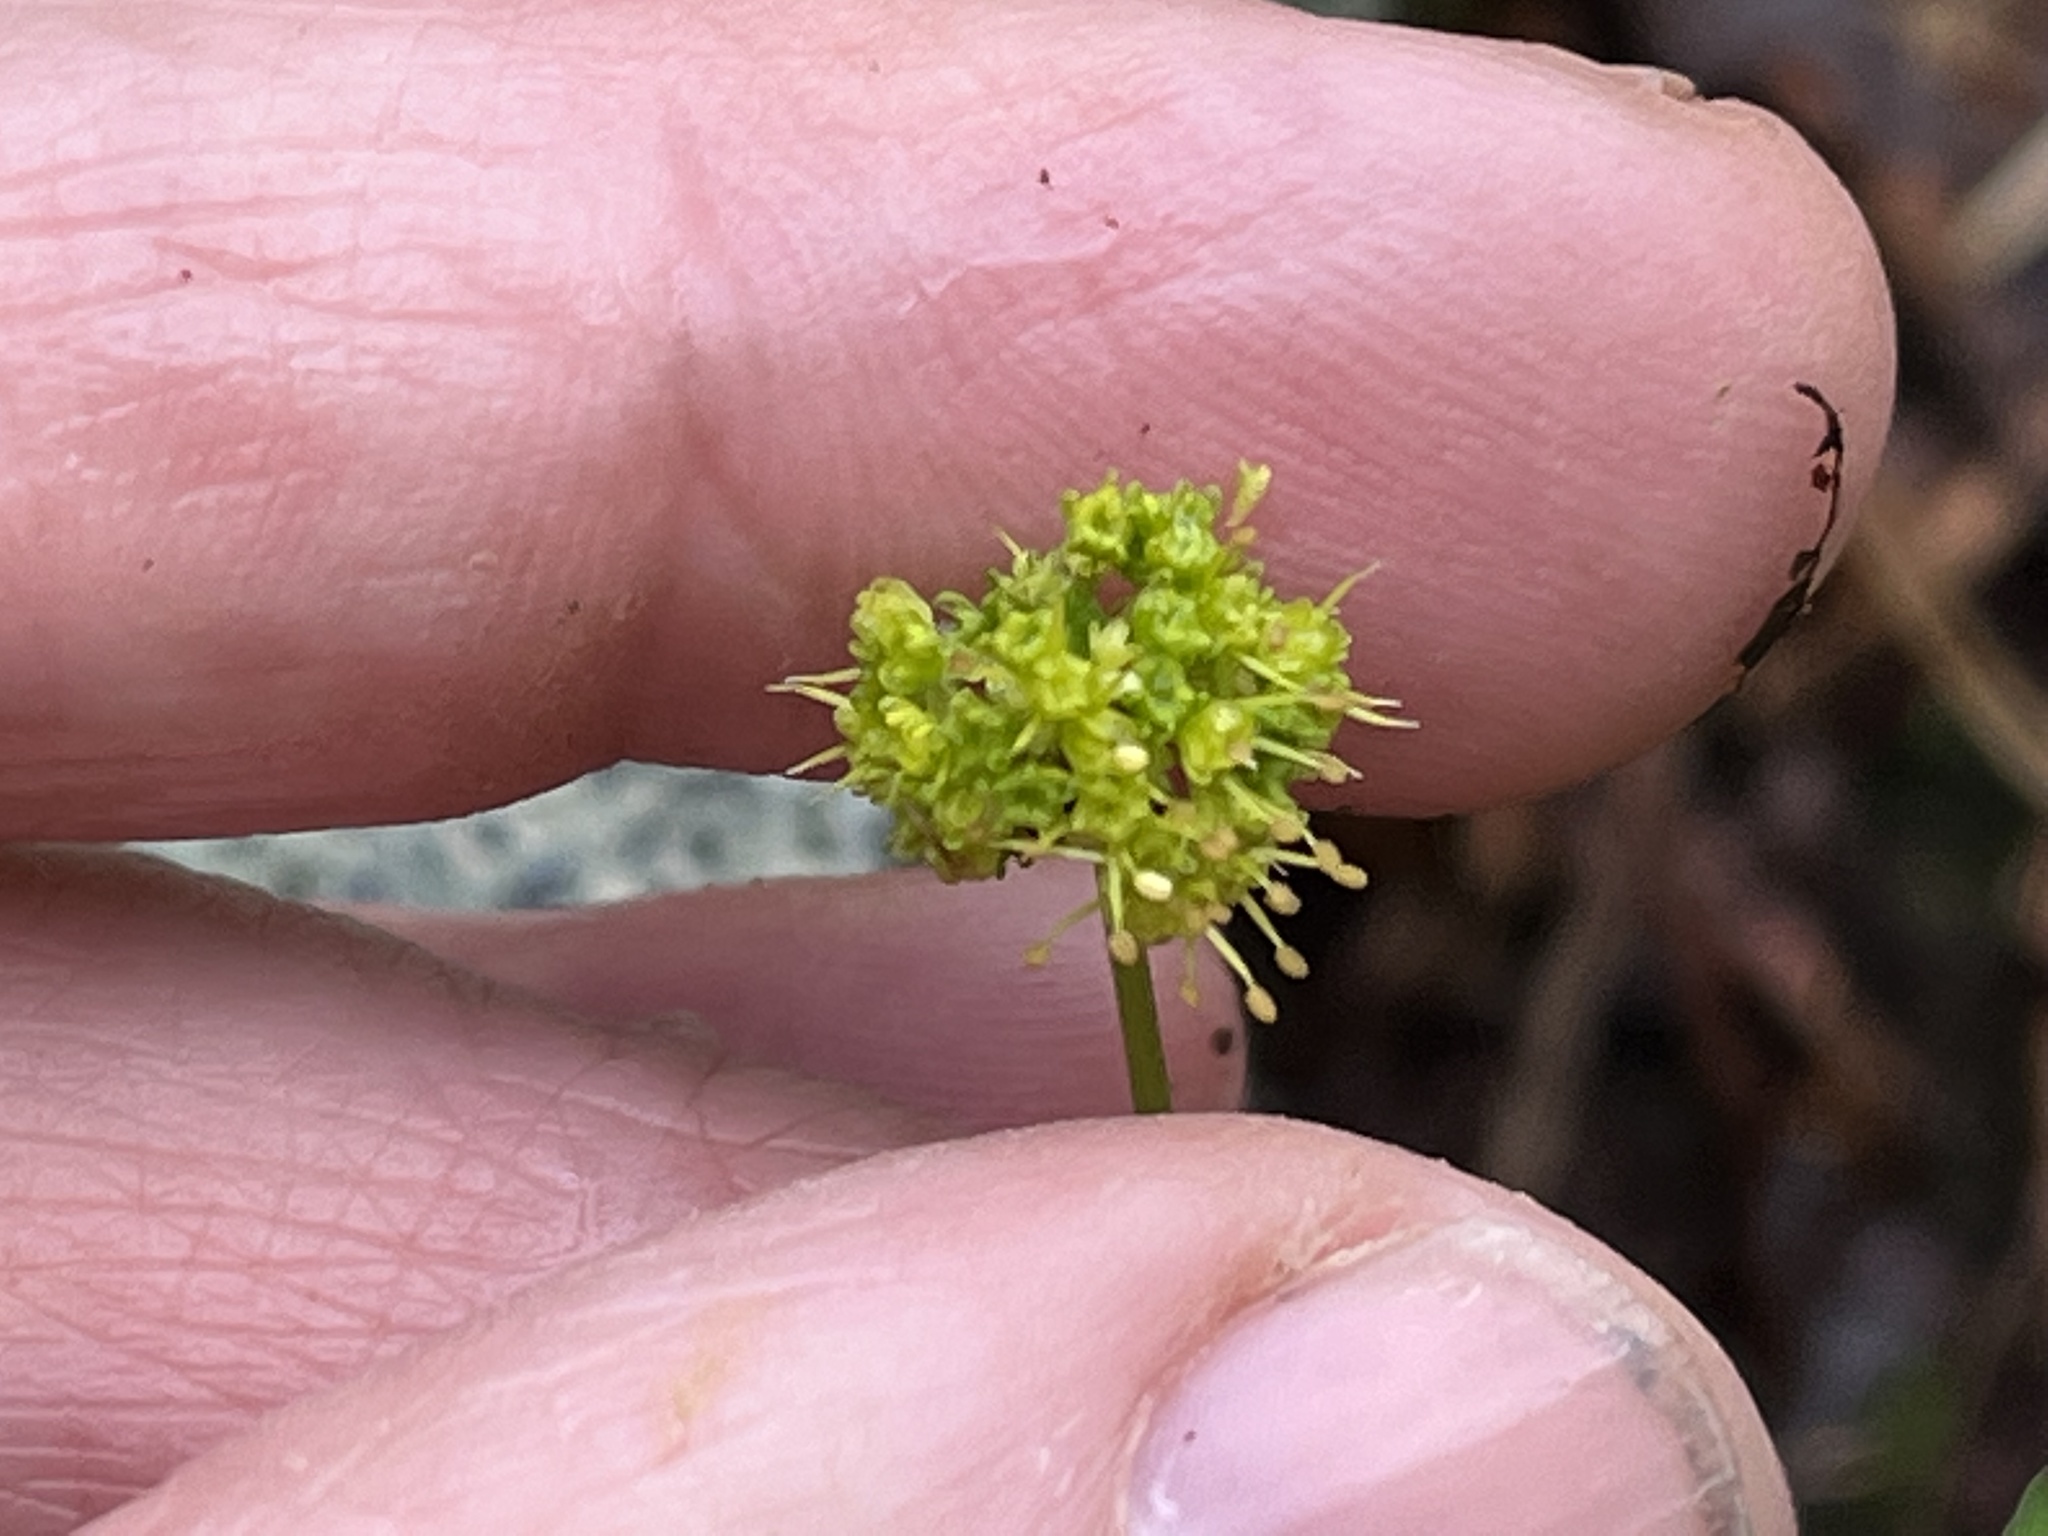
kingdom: Plantae
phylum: Tracheophyta
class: Magnoliopsida
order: Apiales
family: Apiaceae
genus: Sanicula
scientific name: Sanicula odorata
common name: Cluster sanicle
